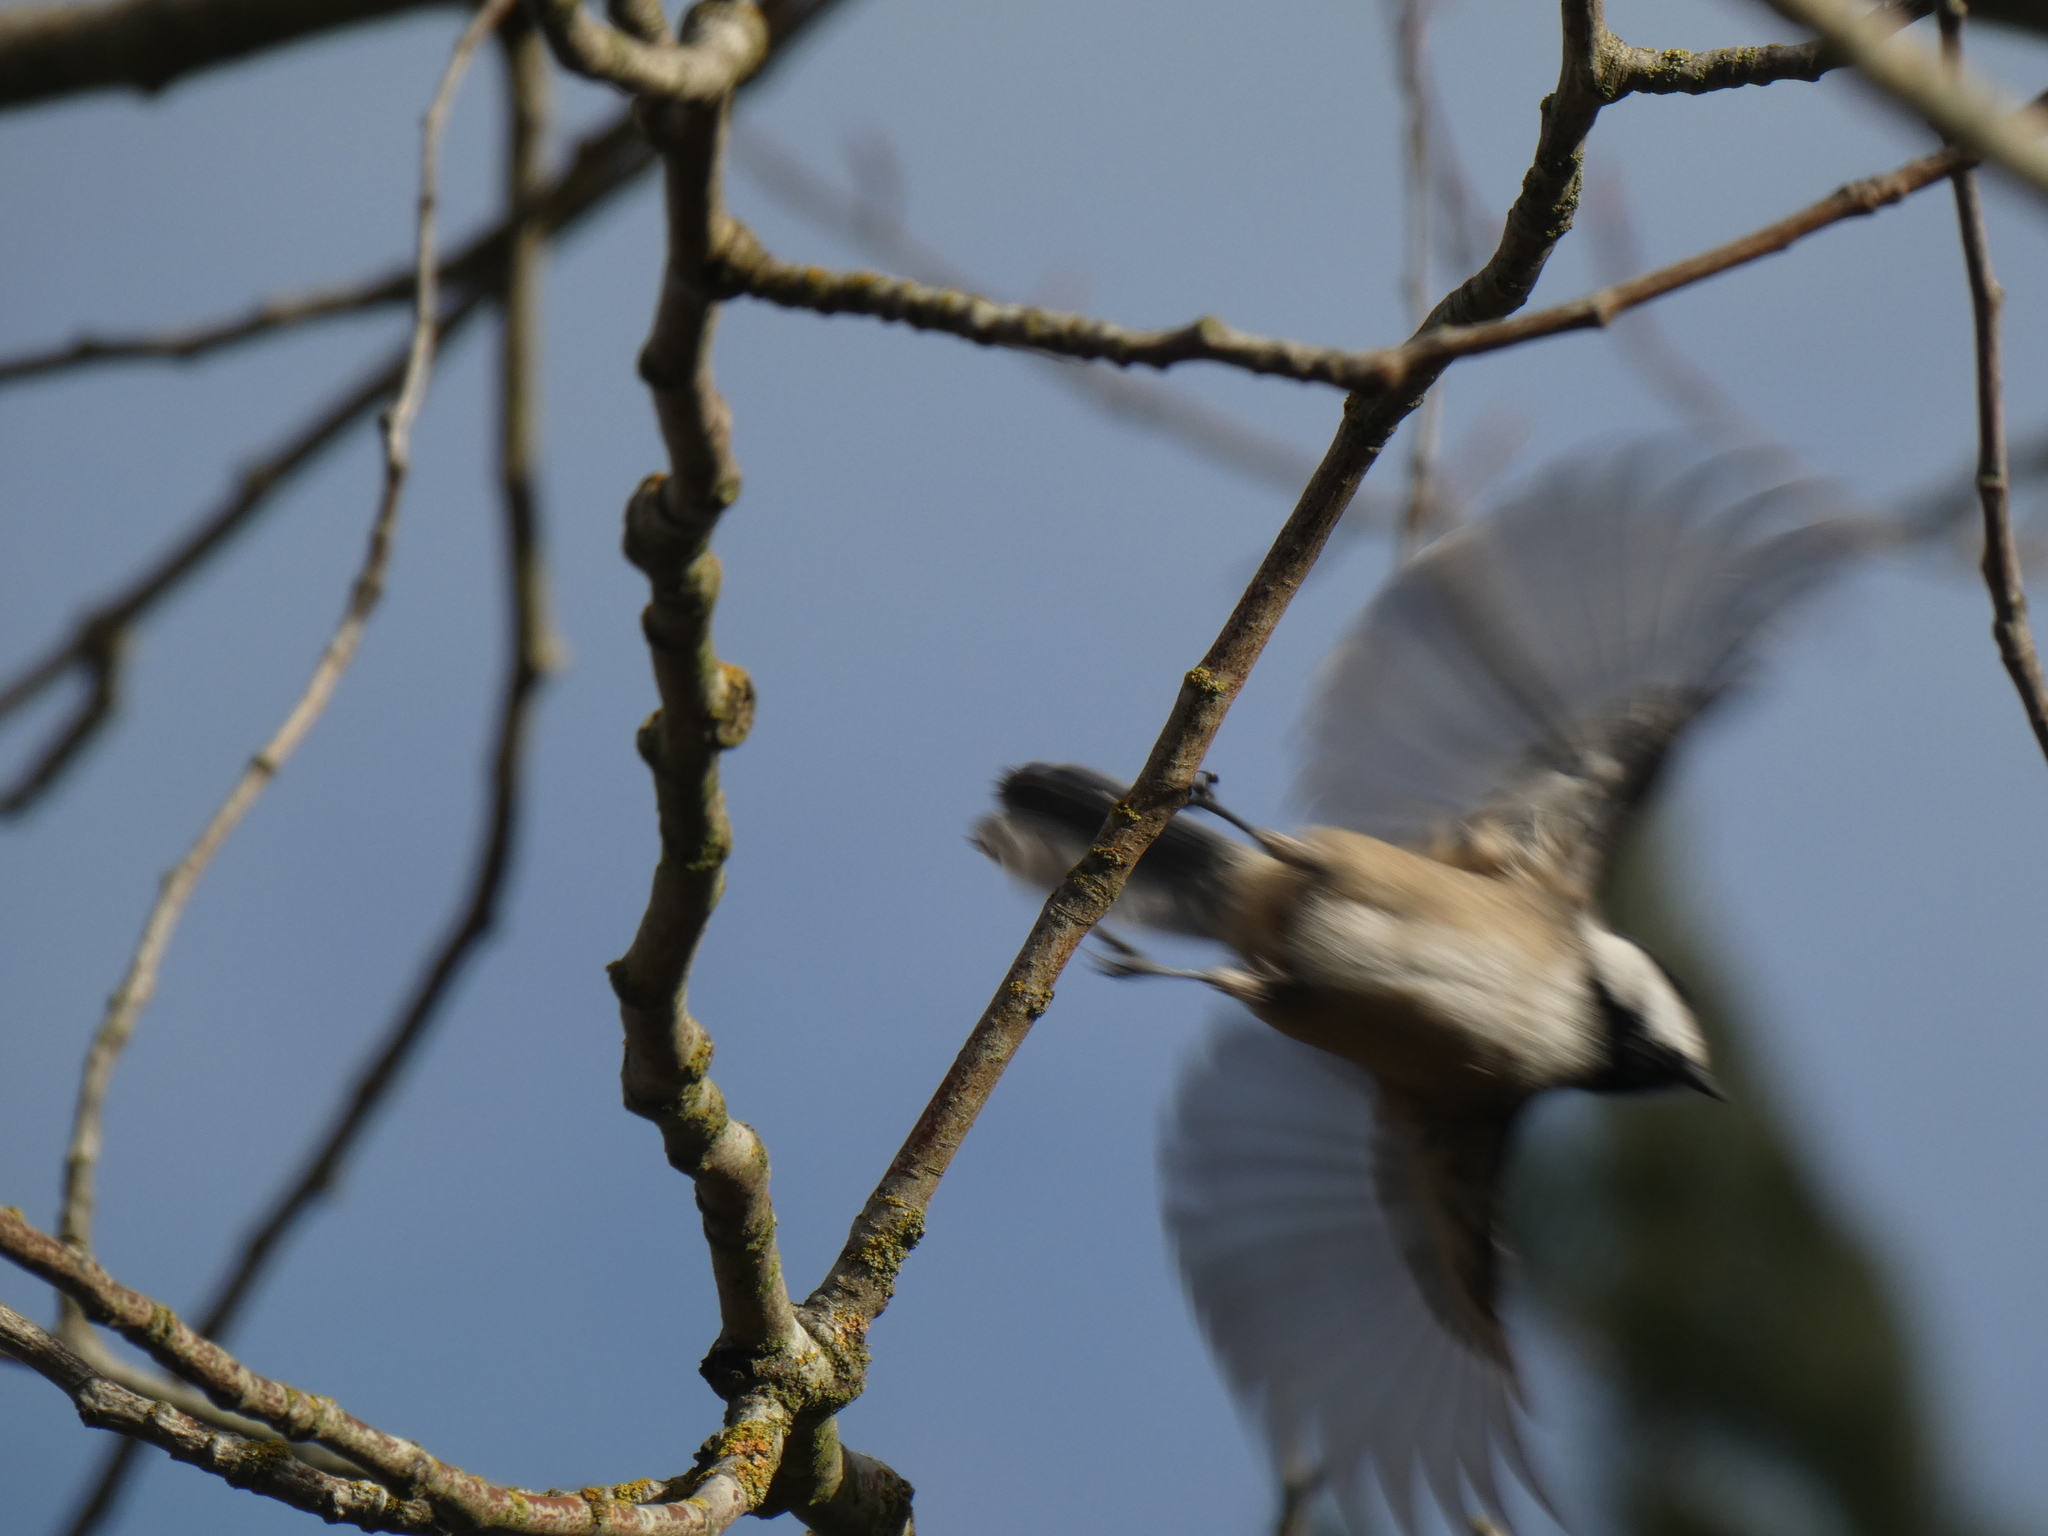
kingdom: Animalia
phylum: Chordata
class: Aves
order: Passeriformes
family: Paridae
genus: Poecile
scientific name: Poecile atricapillus
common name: Black-capped chickadee
